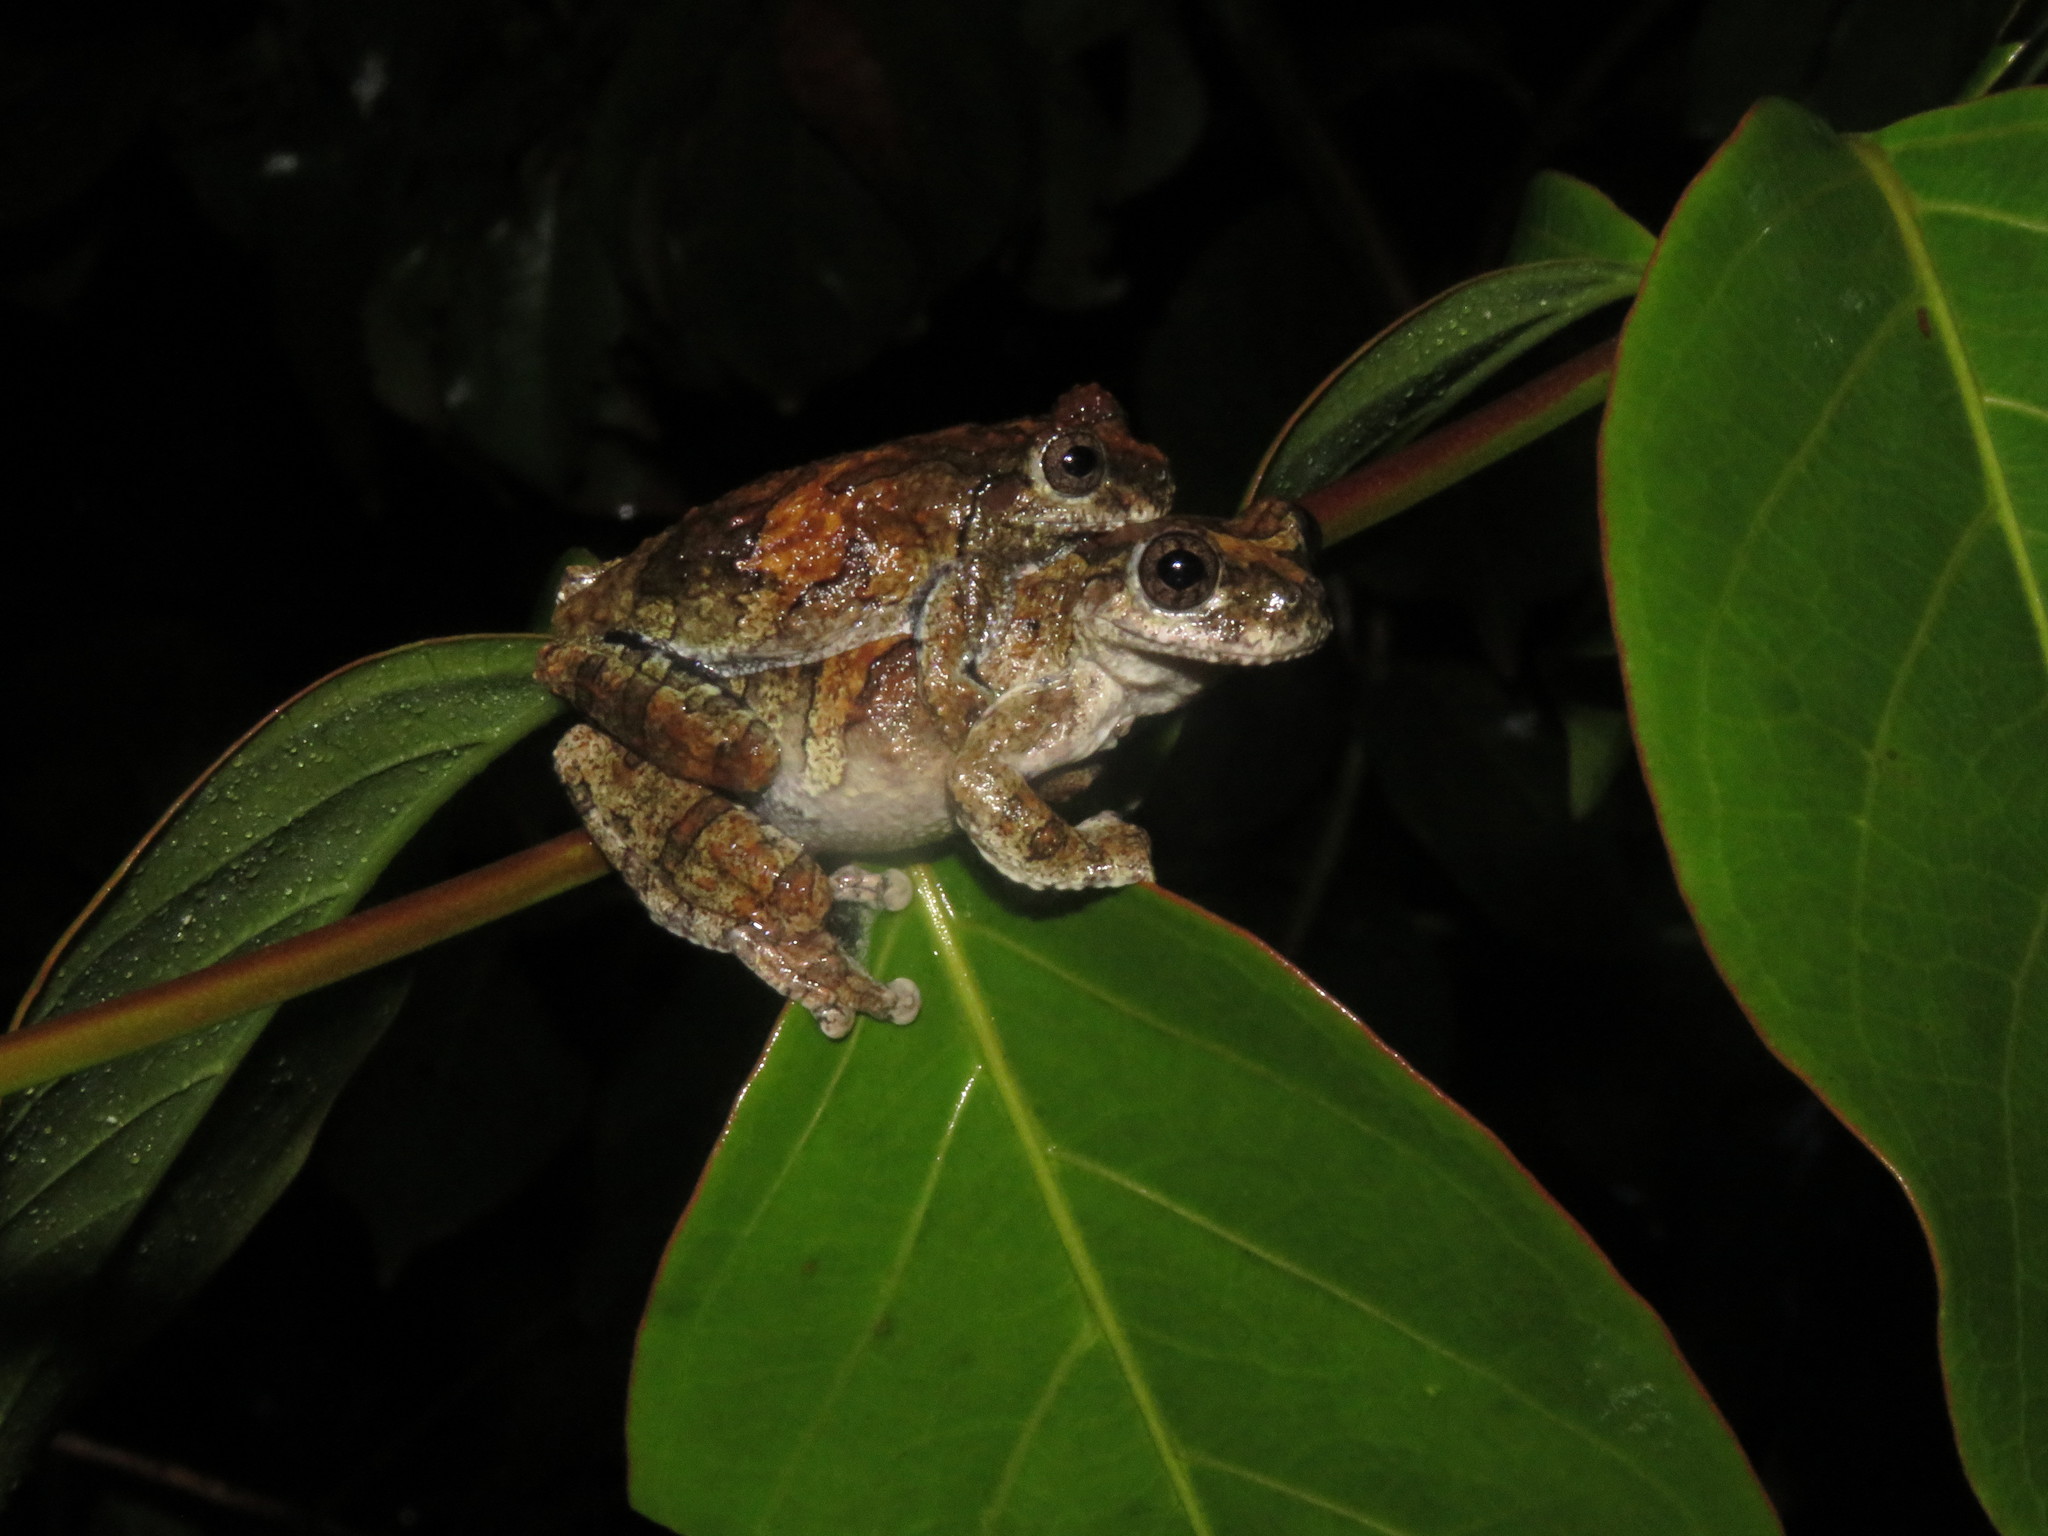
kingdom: Animalia
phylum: Chordata
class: Amphibia
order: Anura
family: Hylidae
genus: Dendropsophus
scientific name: Dendropsophus acreanus
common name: Acre treefrog
